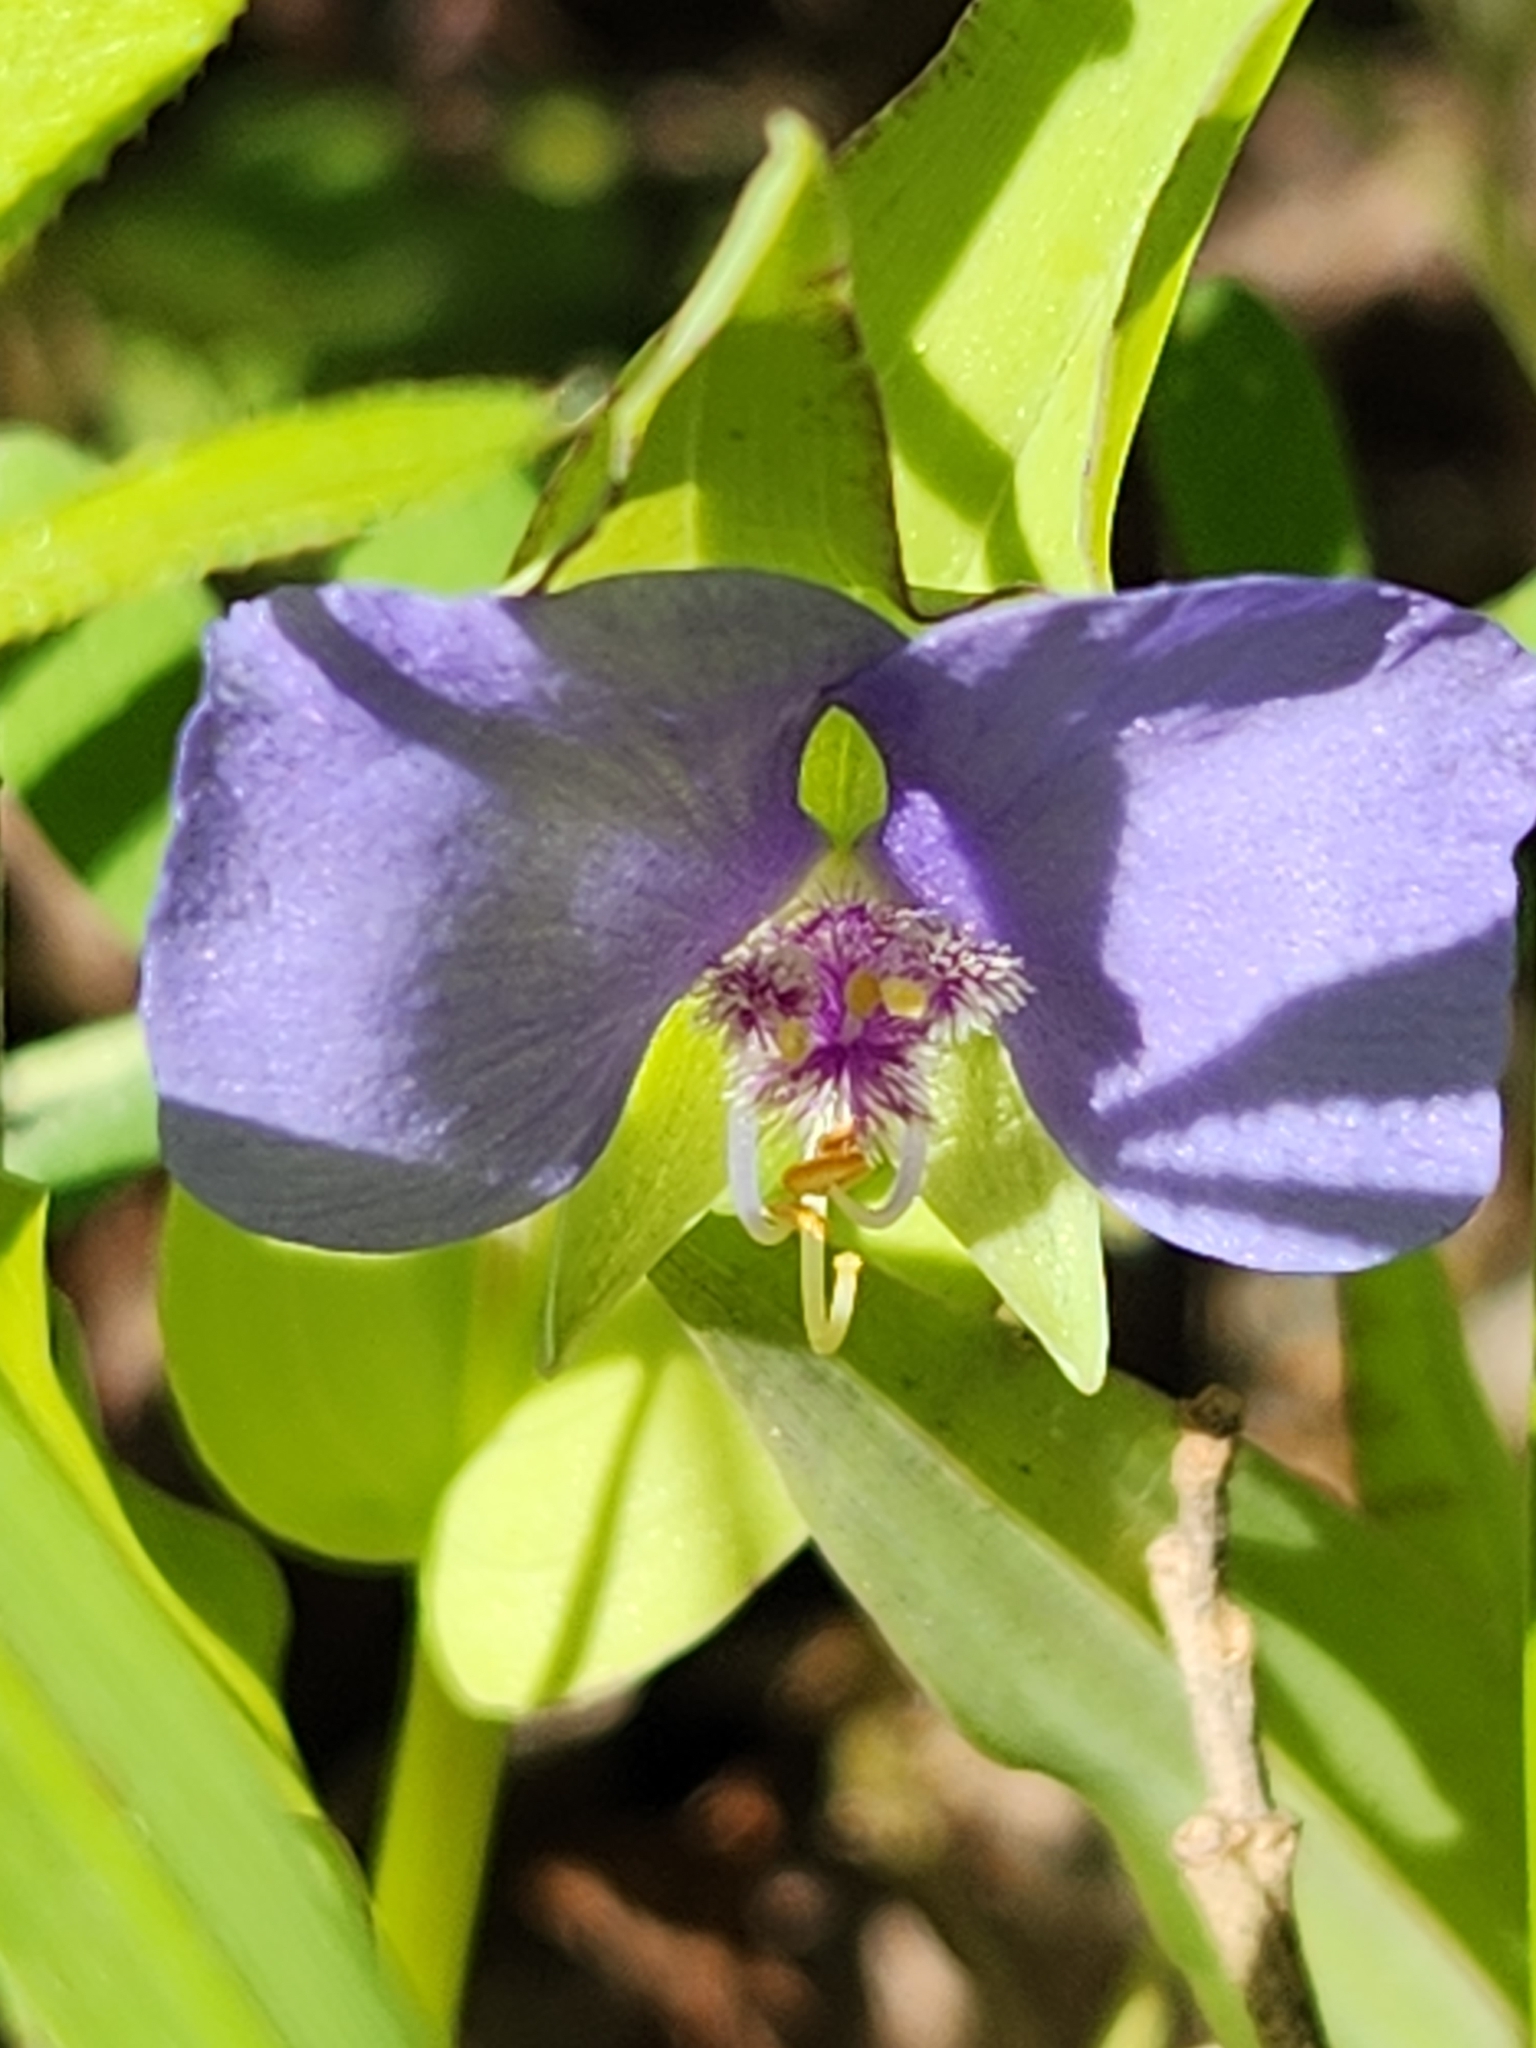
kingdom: Plantae
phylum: Tracheophyta
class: Liliopsida
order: Commelinales
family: Commelinaceae
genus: Tinantia
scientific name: Tinantia anomala
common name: False dayflower
